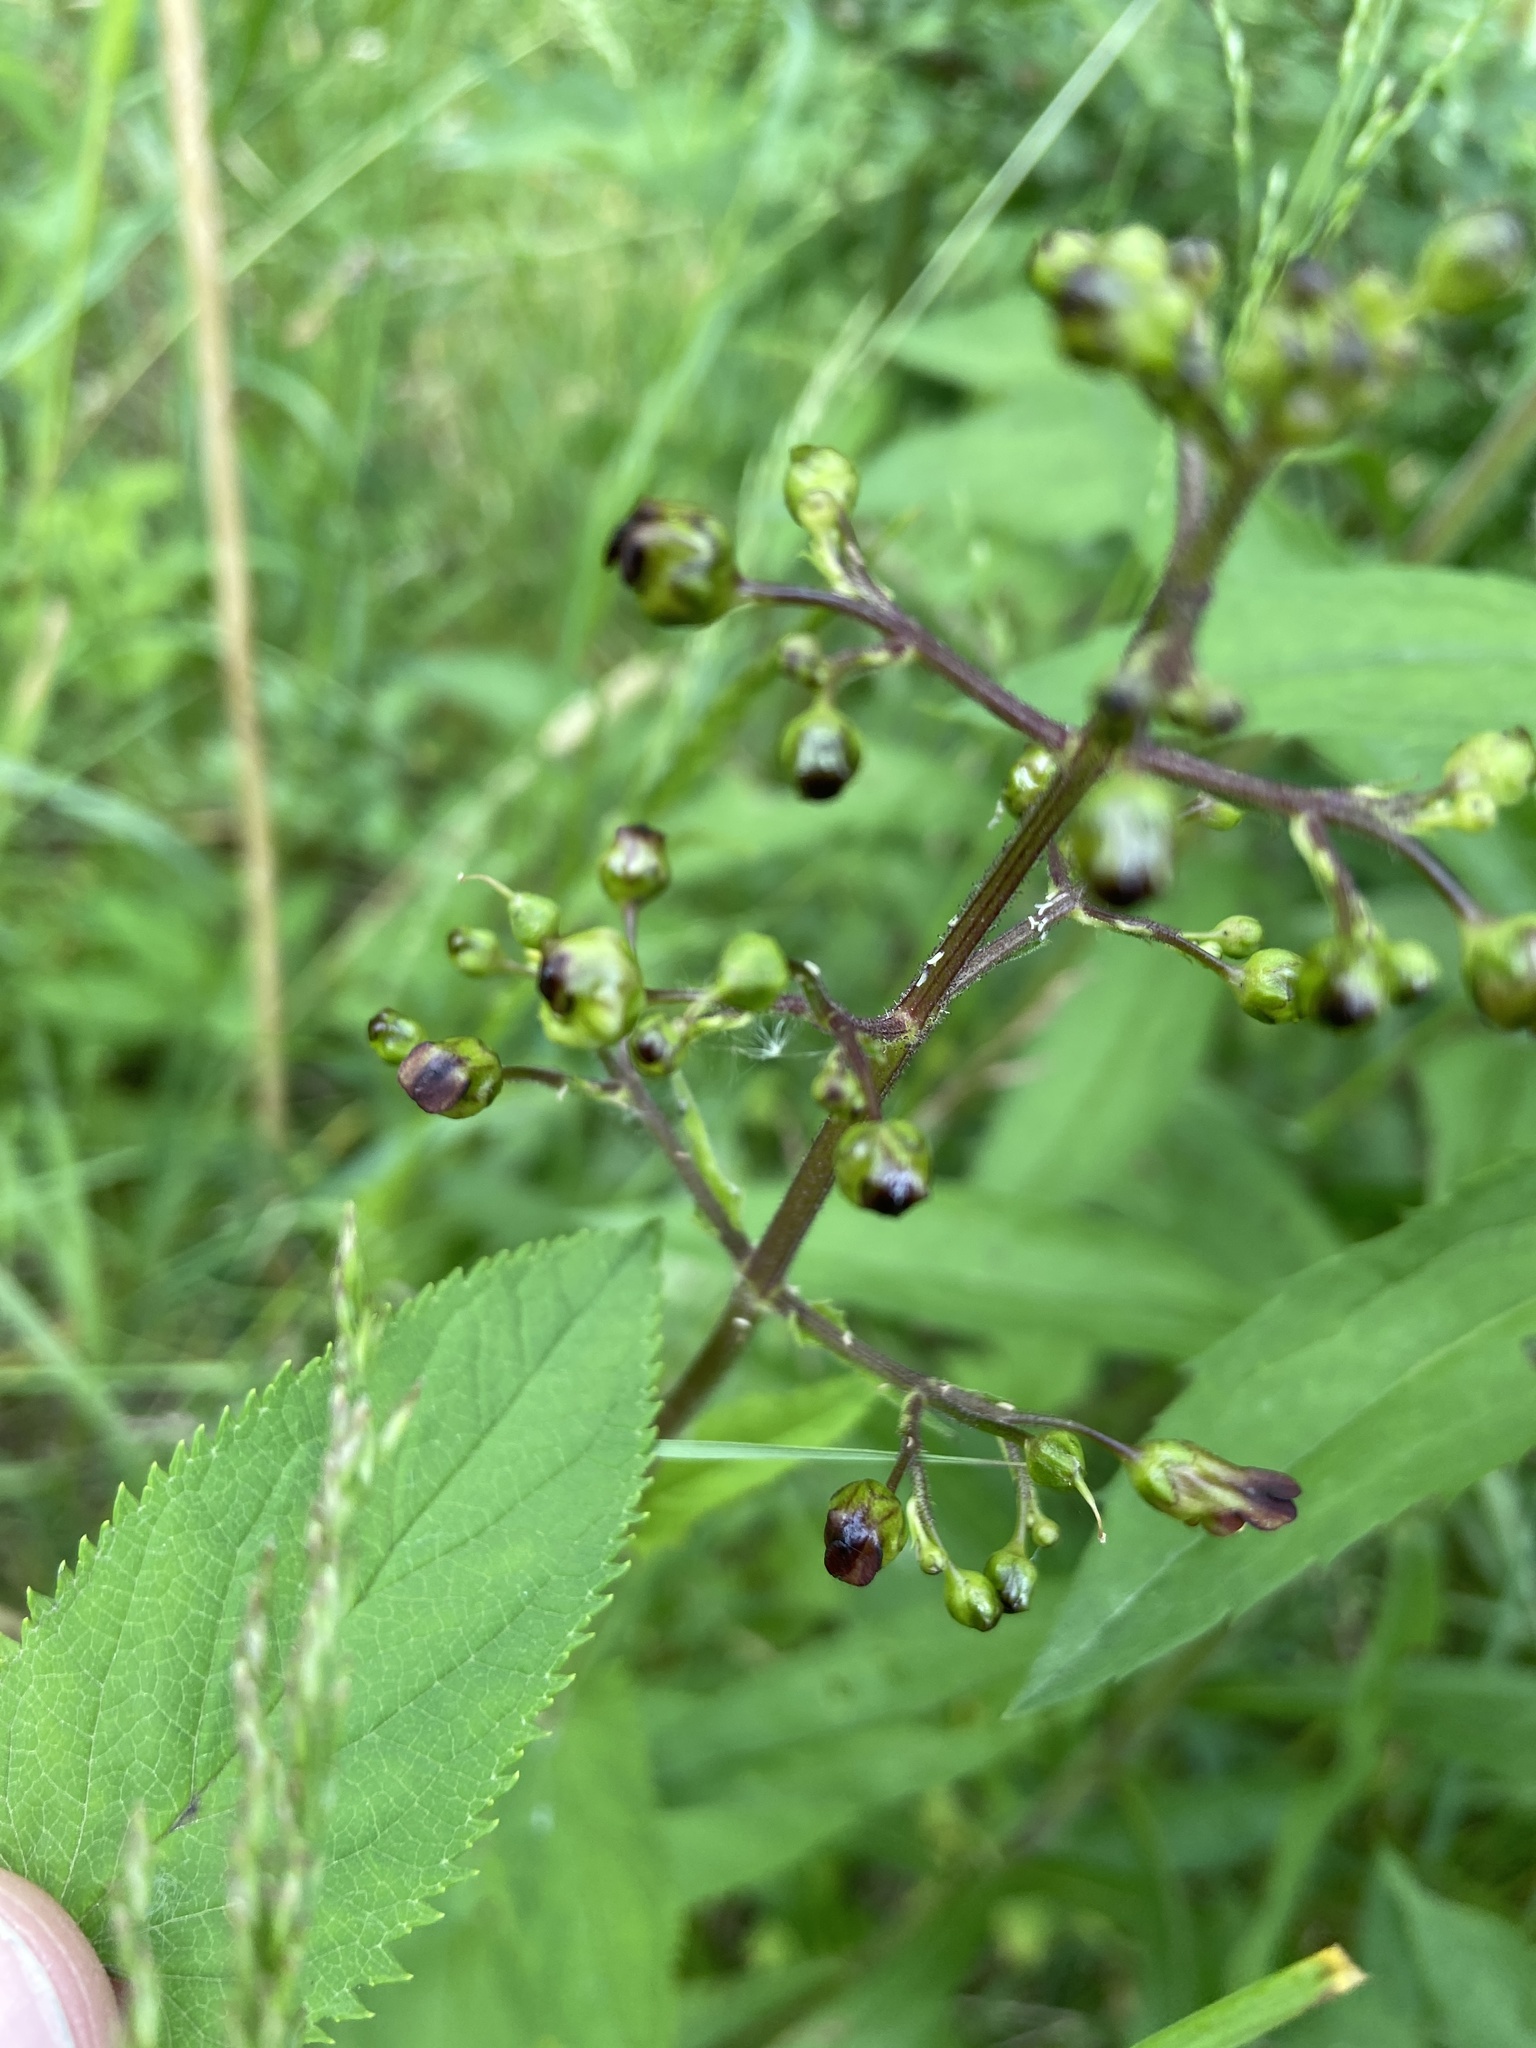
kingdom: Plantae
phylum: Tracheophyta
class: Magnoliopsida
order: Lamiales
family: Scrophulariaceae
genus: Scrophularia
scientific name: Scrophularia nodosa
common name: Common figwort
